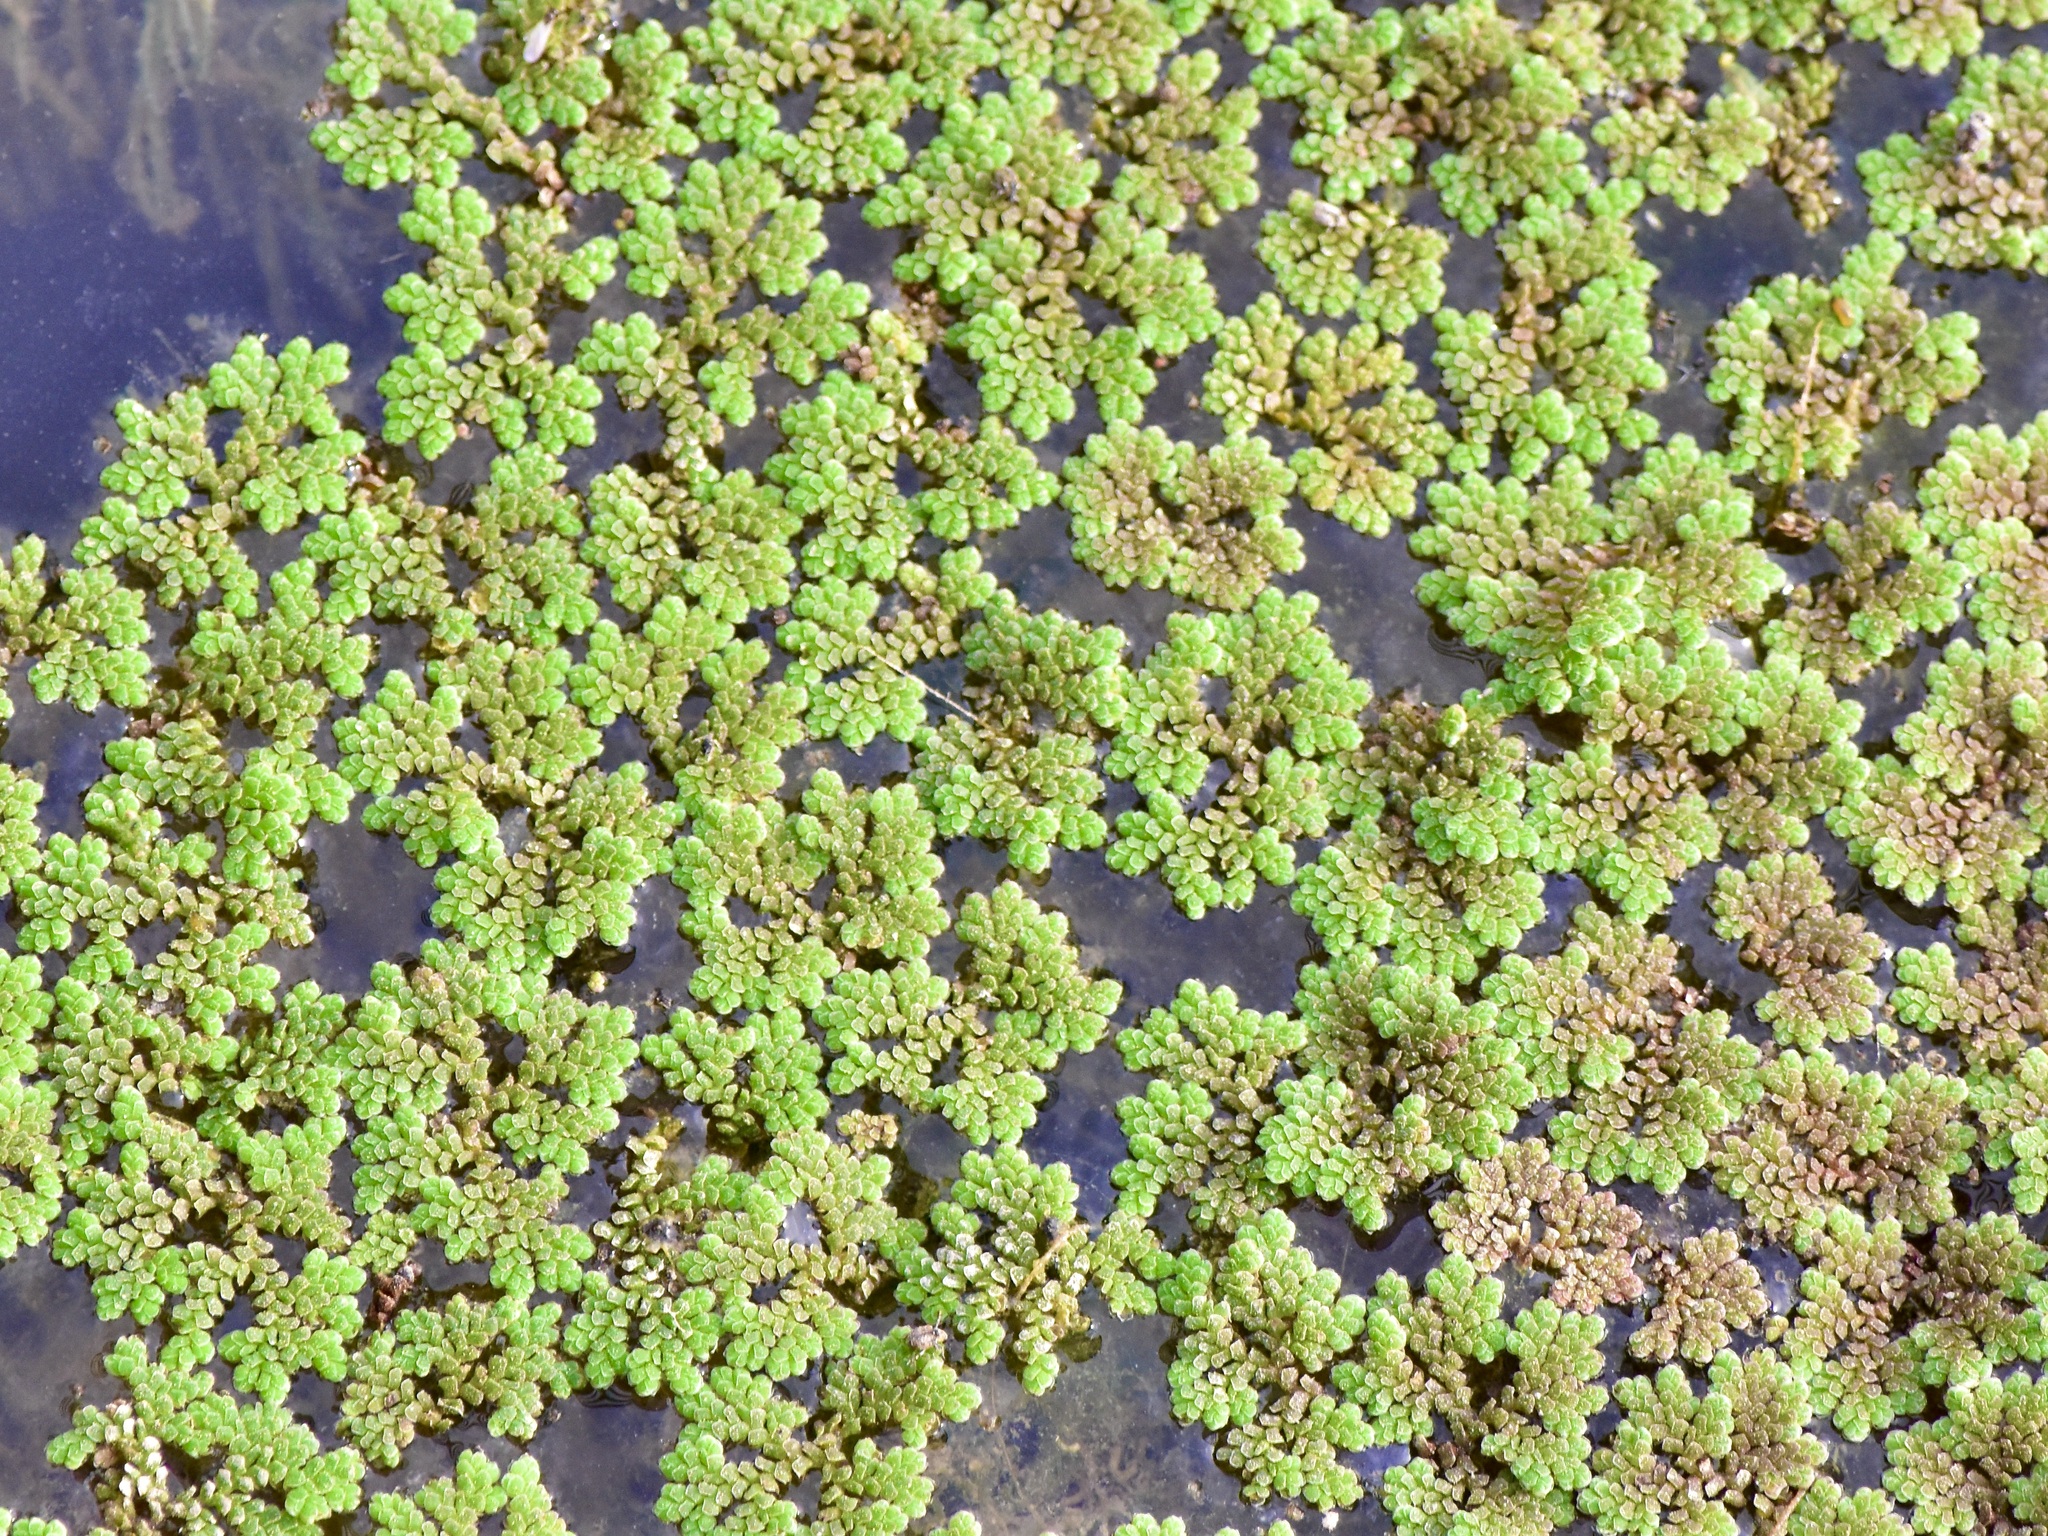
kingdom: Plantae
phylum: Tracheophyta
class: Polypodiopsida
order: Salviniales
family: Salviniaceae
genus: Azolla
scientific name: Azolla filiculoides
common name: Water fern
